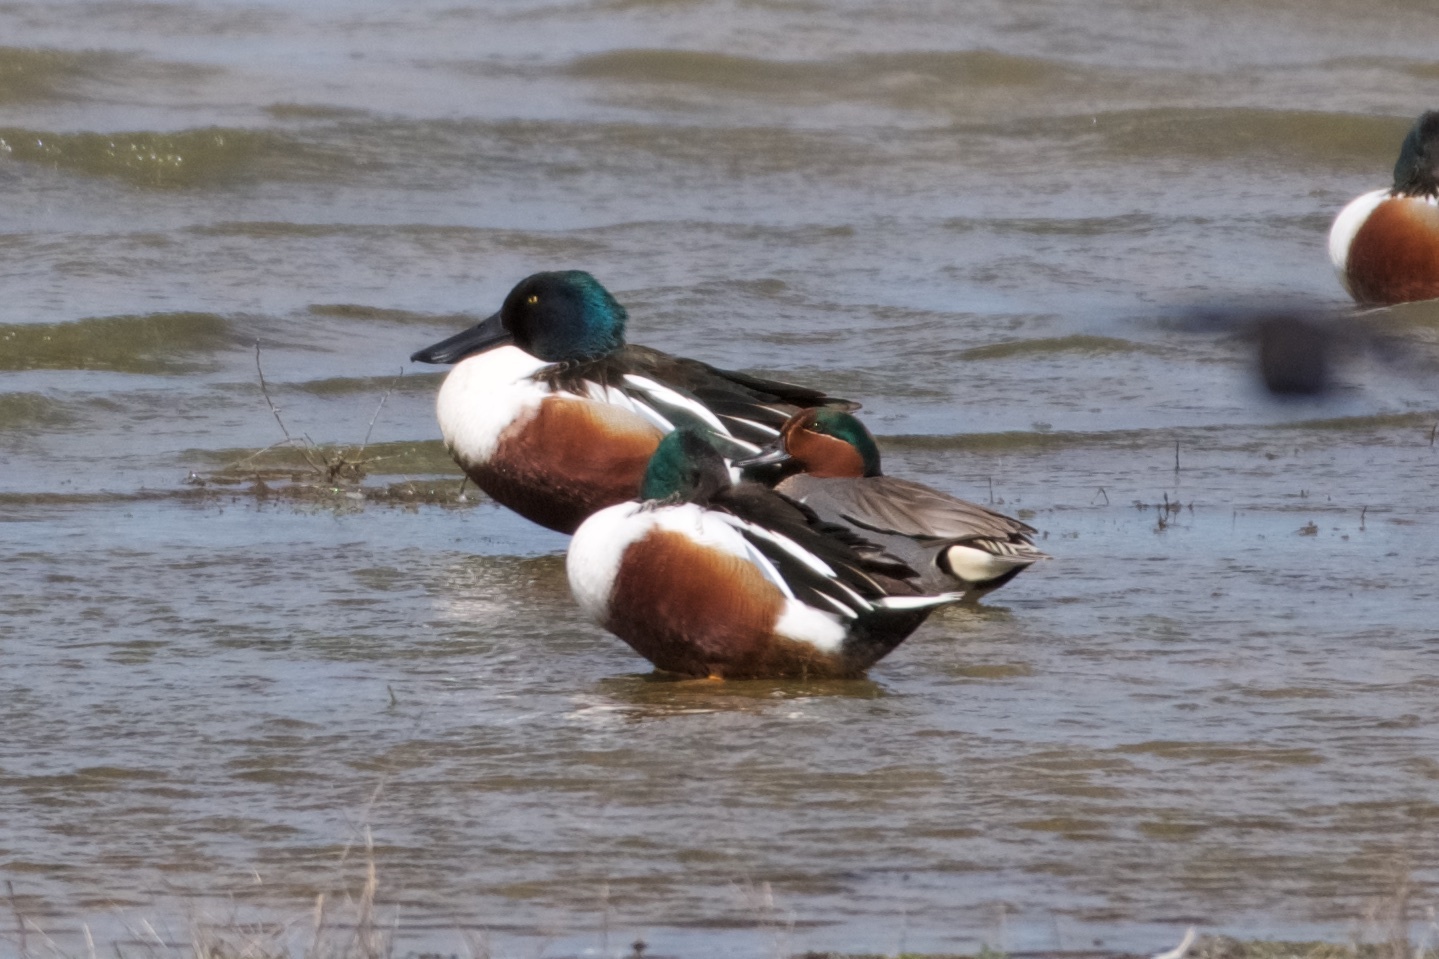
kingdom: Animalia
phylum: Chordata
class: Aves
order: Anseriformes
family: Anatidae
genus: Anas
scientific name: Anas crecca
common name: Eurasian teal
